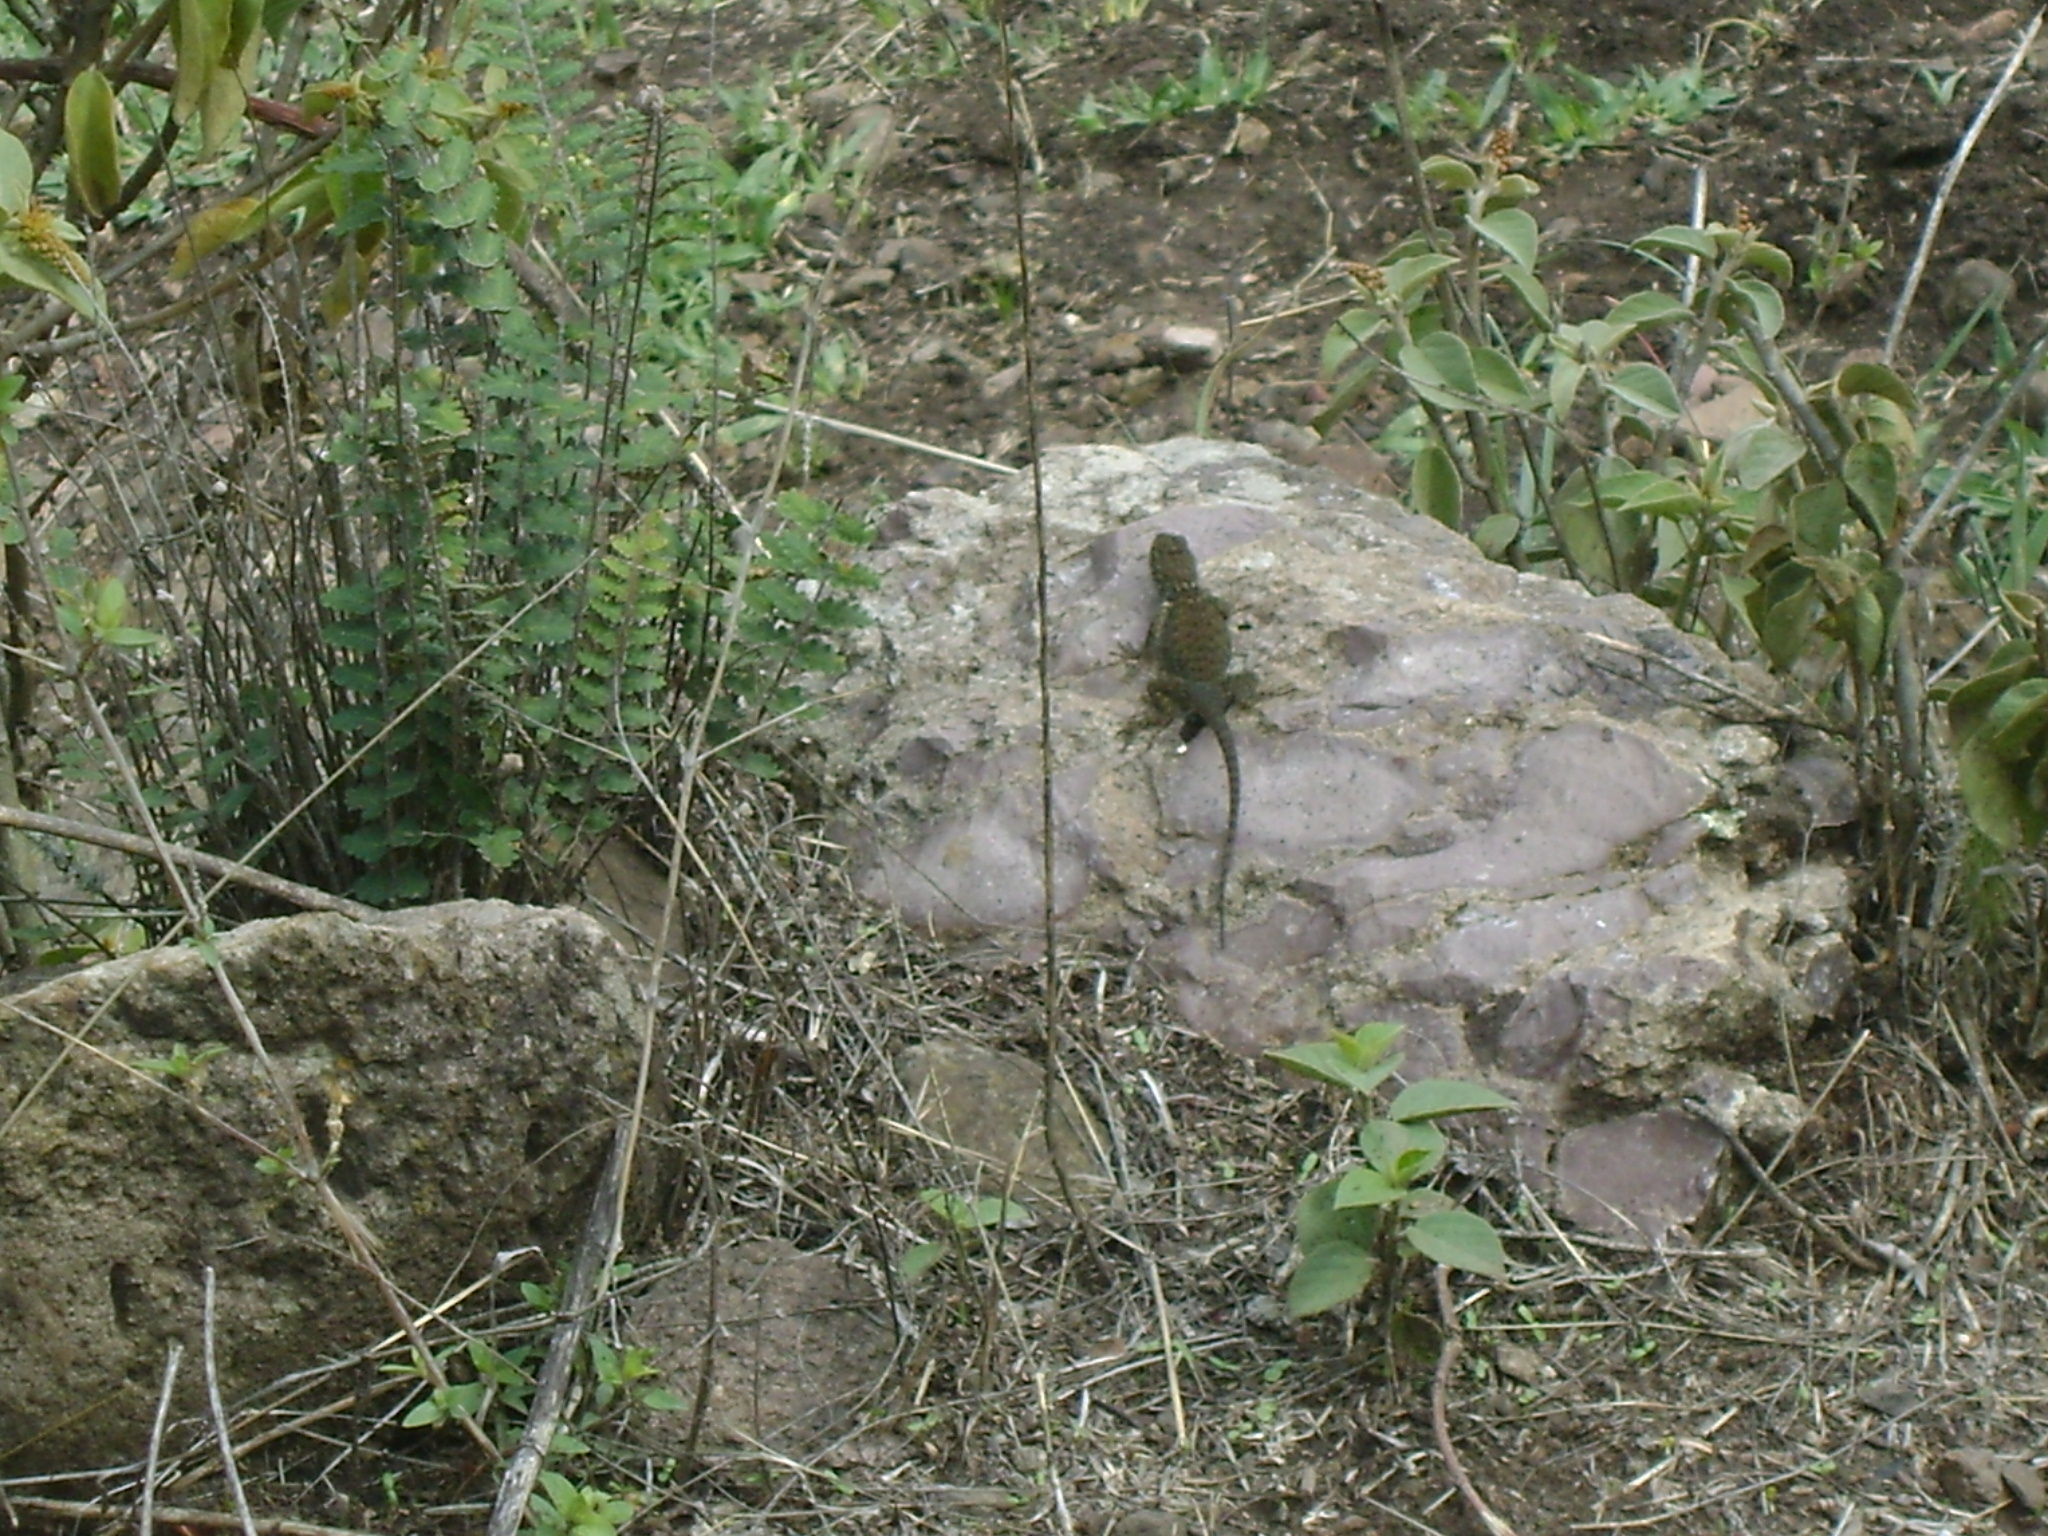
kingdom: Animalia
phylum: Chordata
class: Squamata
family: Phrynosomatidae
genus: Sceloporus
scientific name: Sceloporus torquatus
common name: Central plateau torquate lizard [melanogaster]
